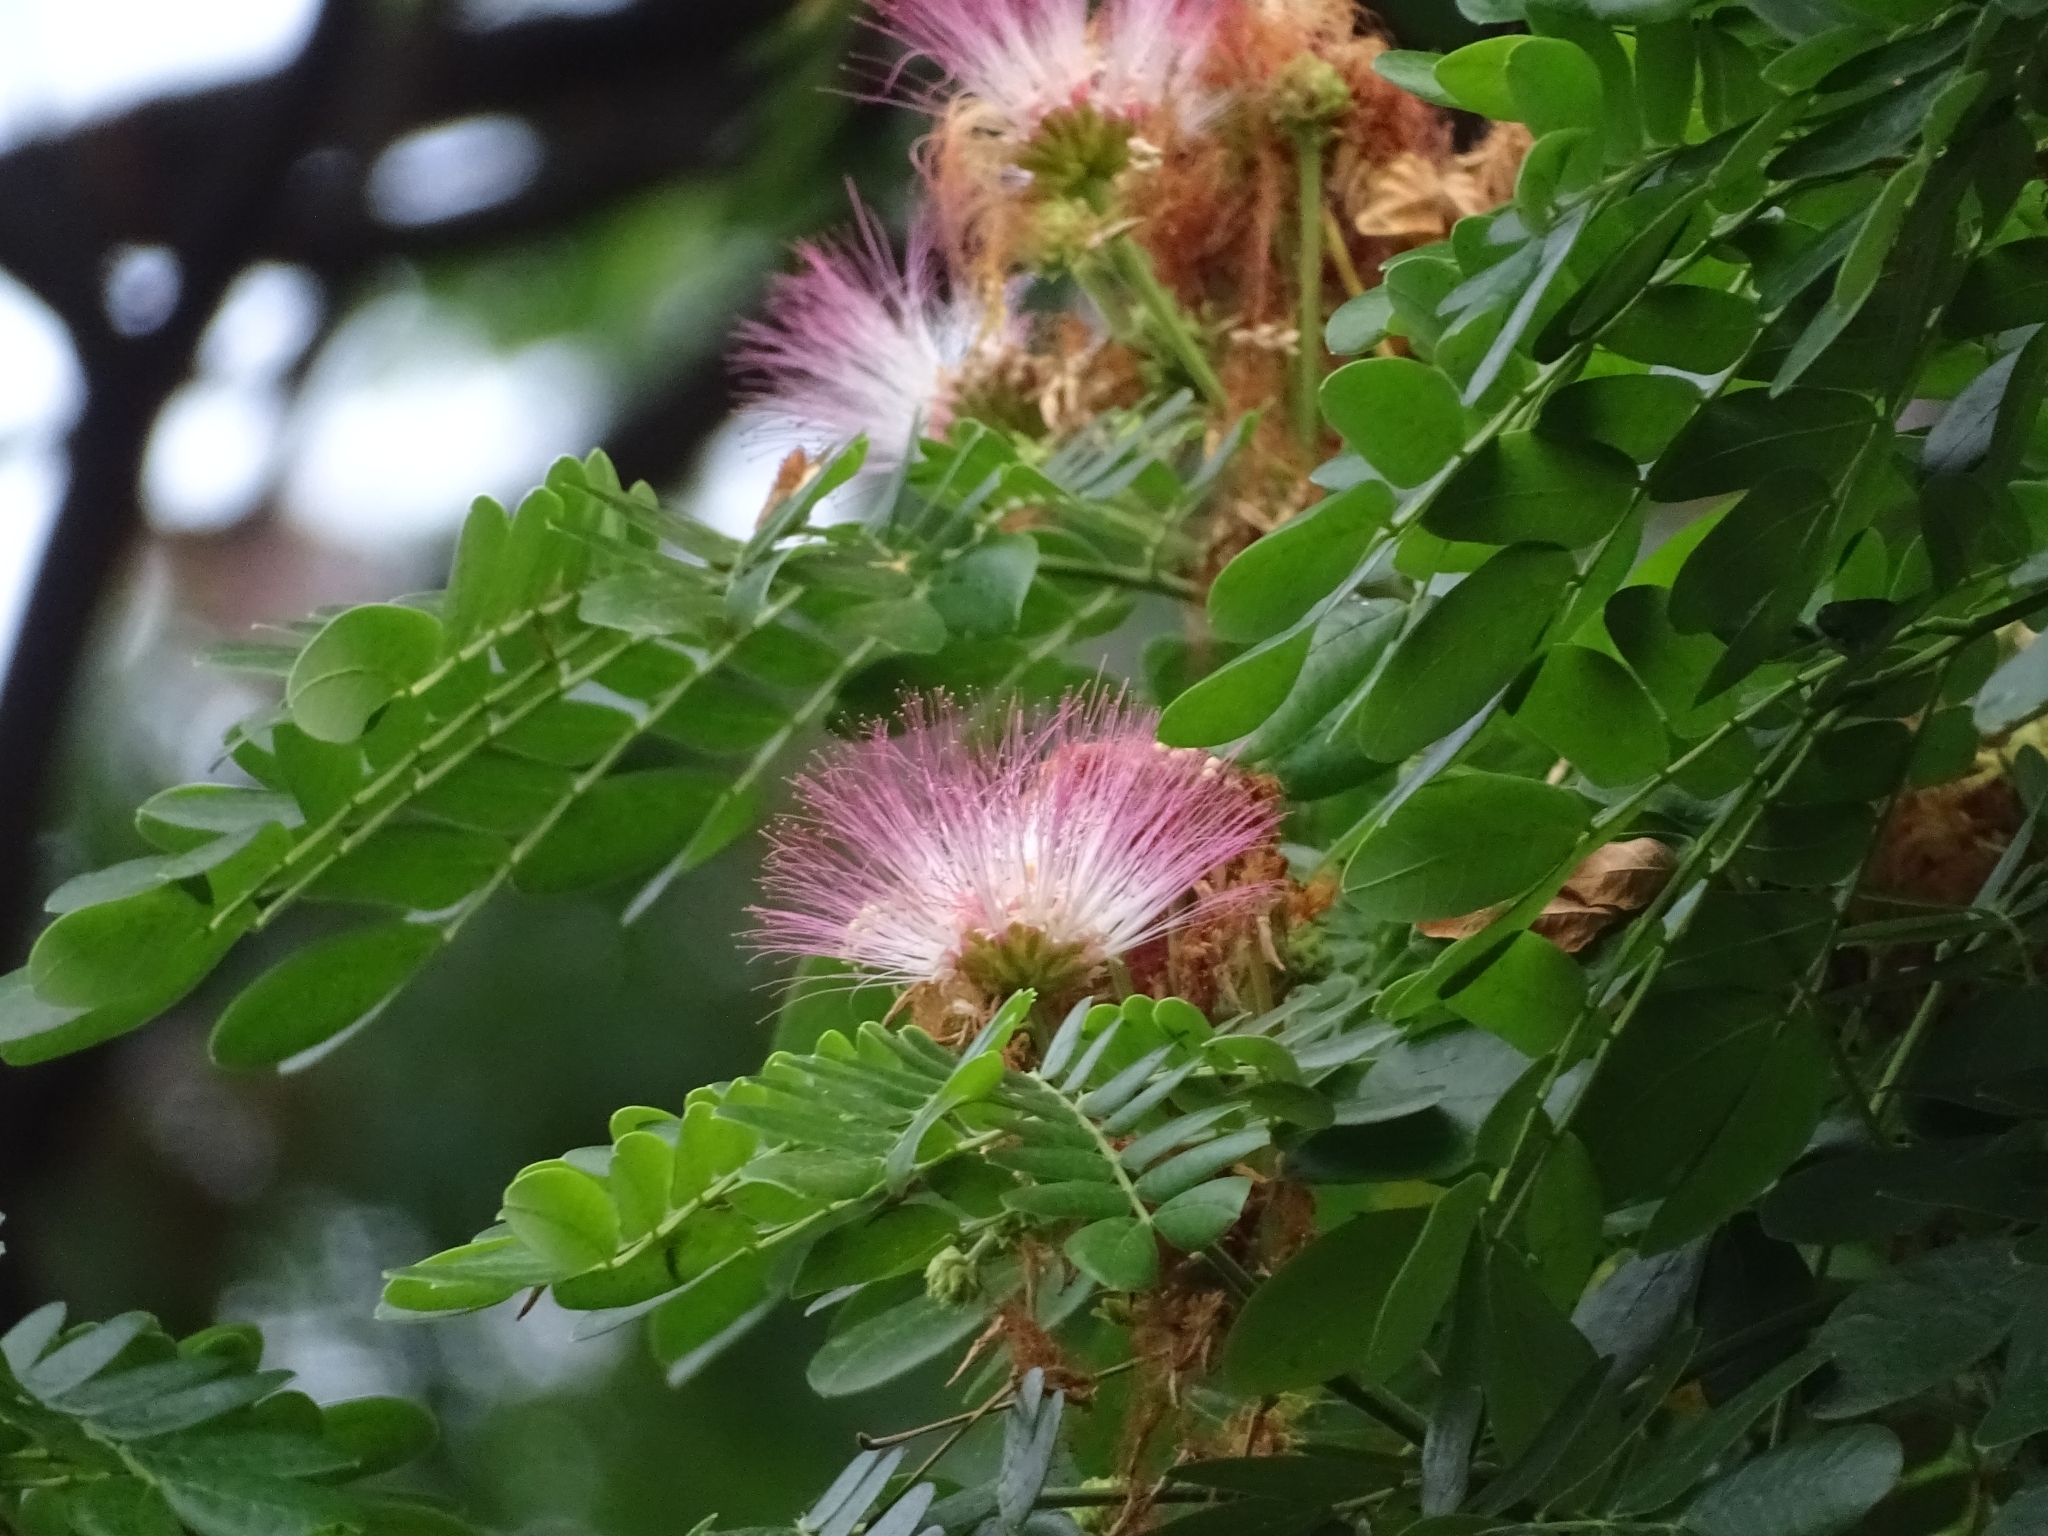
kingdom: Plantae
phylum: Tracheophyta
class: Magnoliopsida
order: Fabales
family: Fabaceae
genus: Samanea
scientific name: Samanea saman
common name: Raintree
